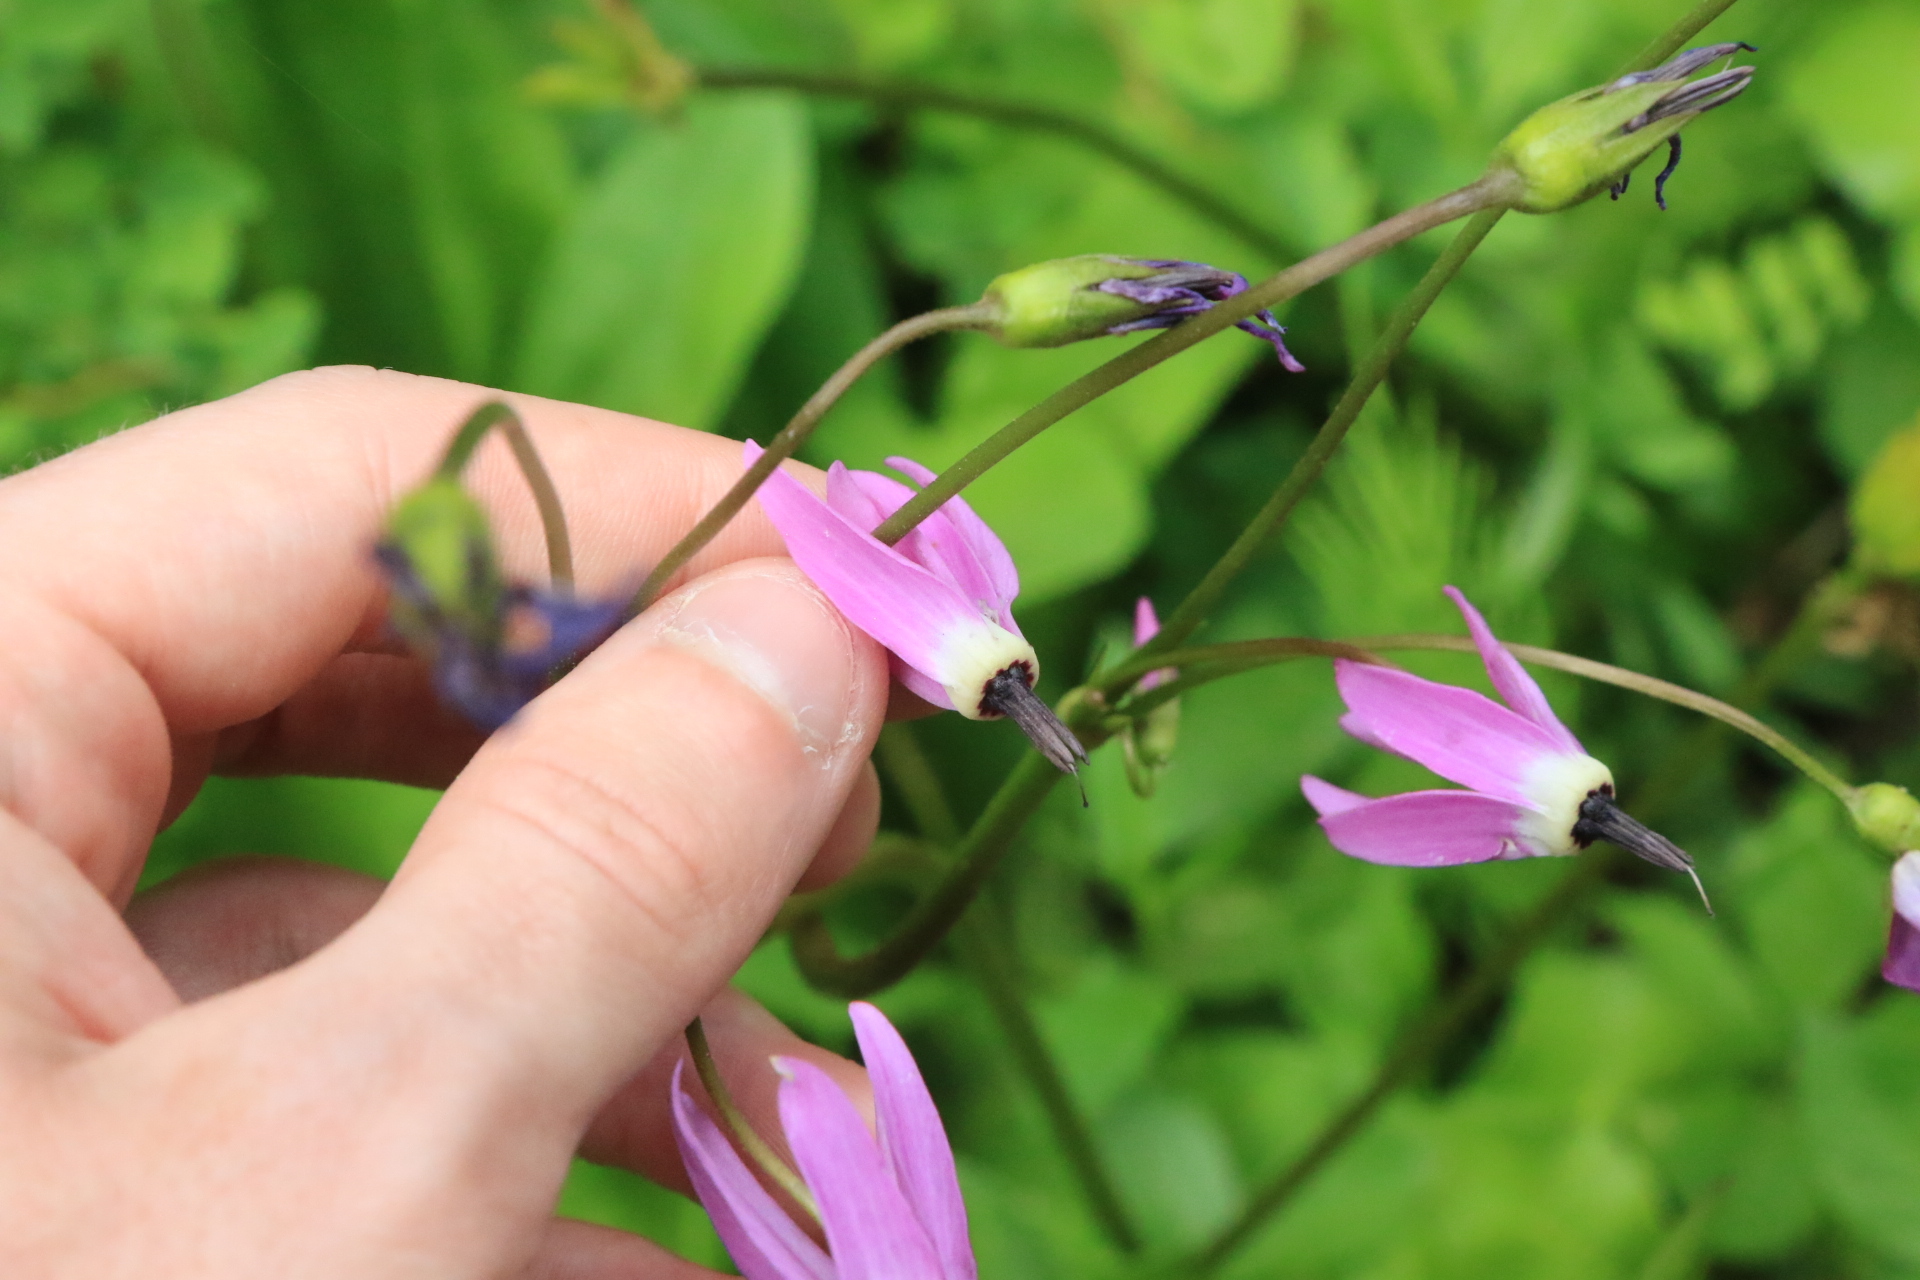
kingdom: Plantae
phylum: Tracheophyta
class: Magnoliopsida
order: Ericales
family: Primulaceae
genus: Dodecatheon
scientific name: Dodecatheon jeffreyanum
